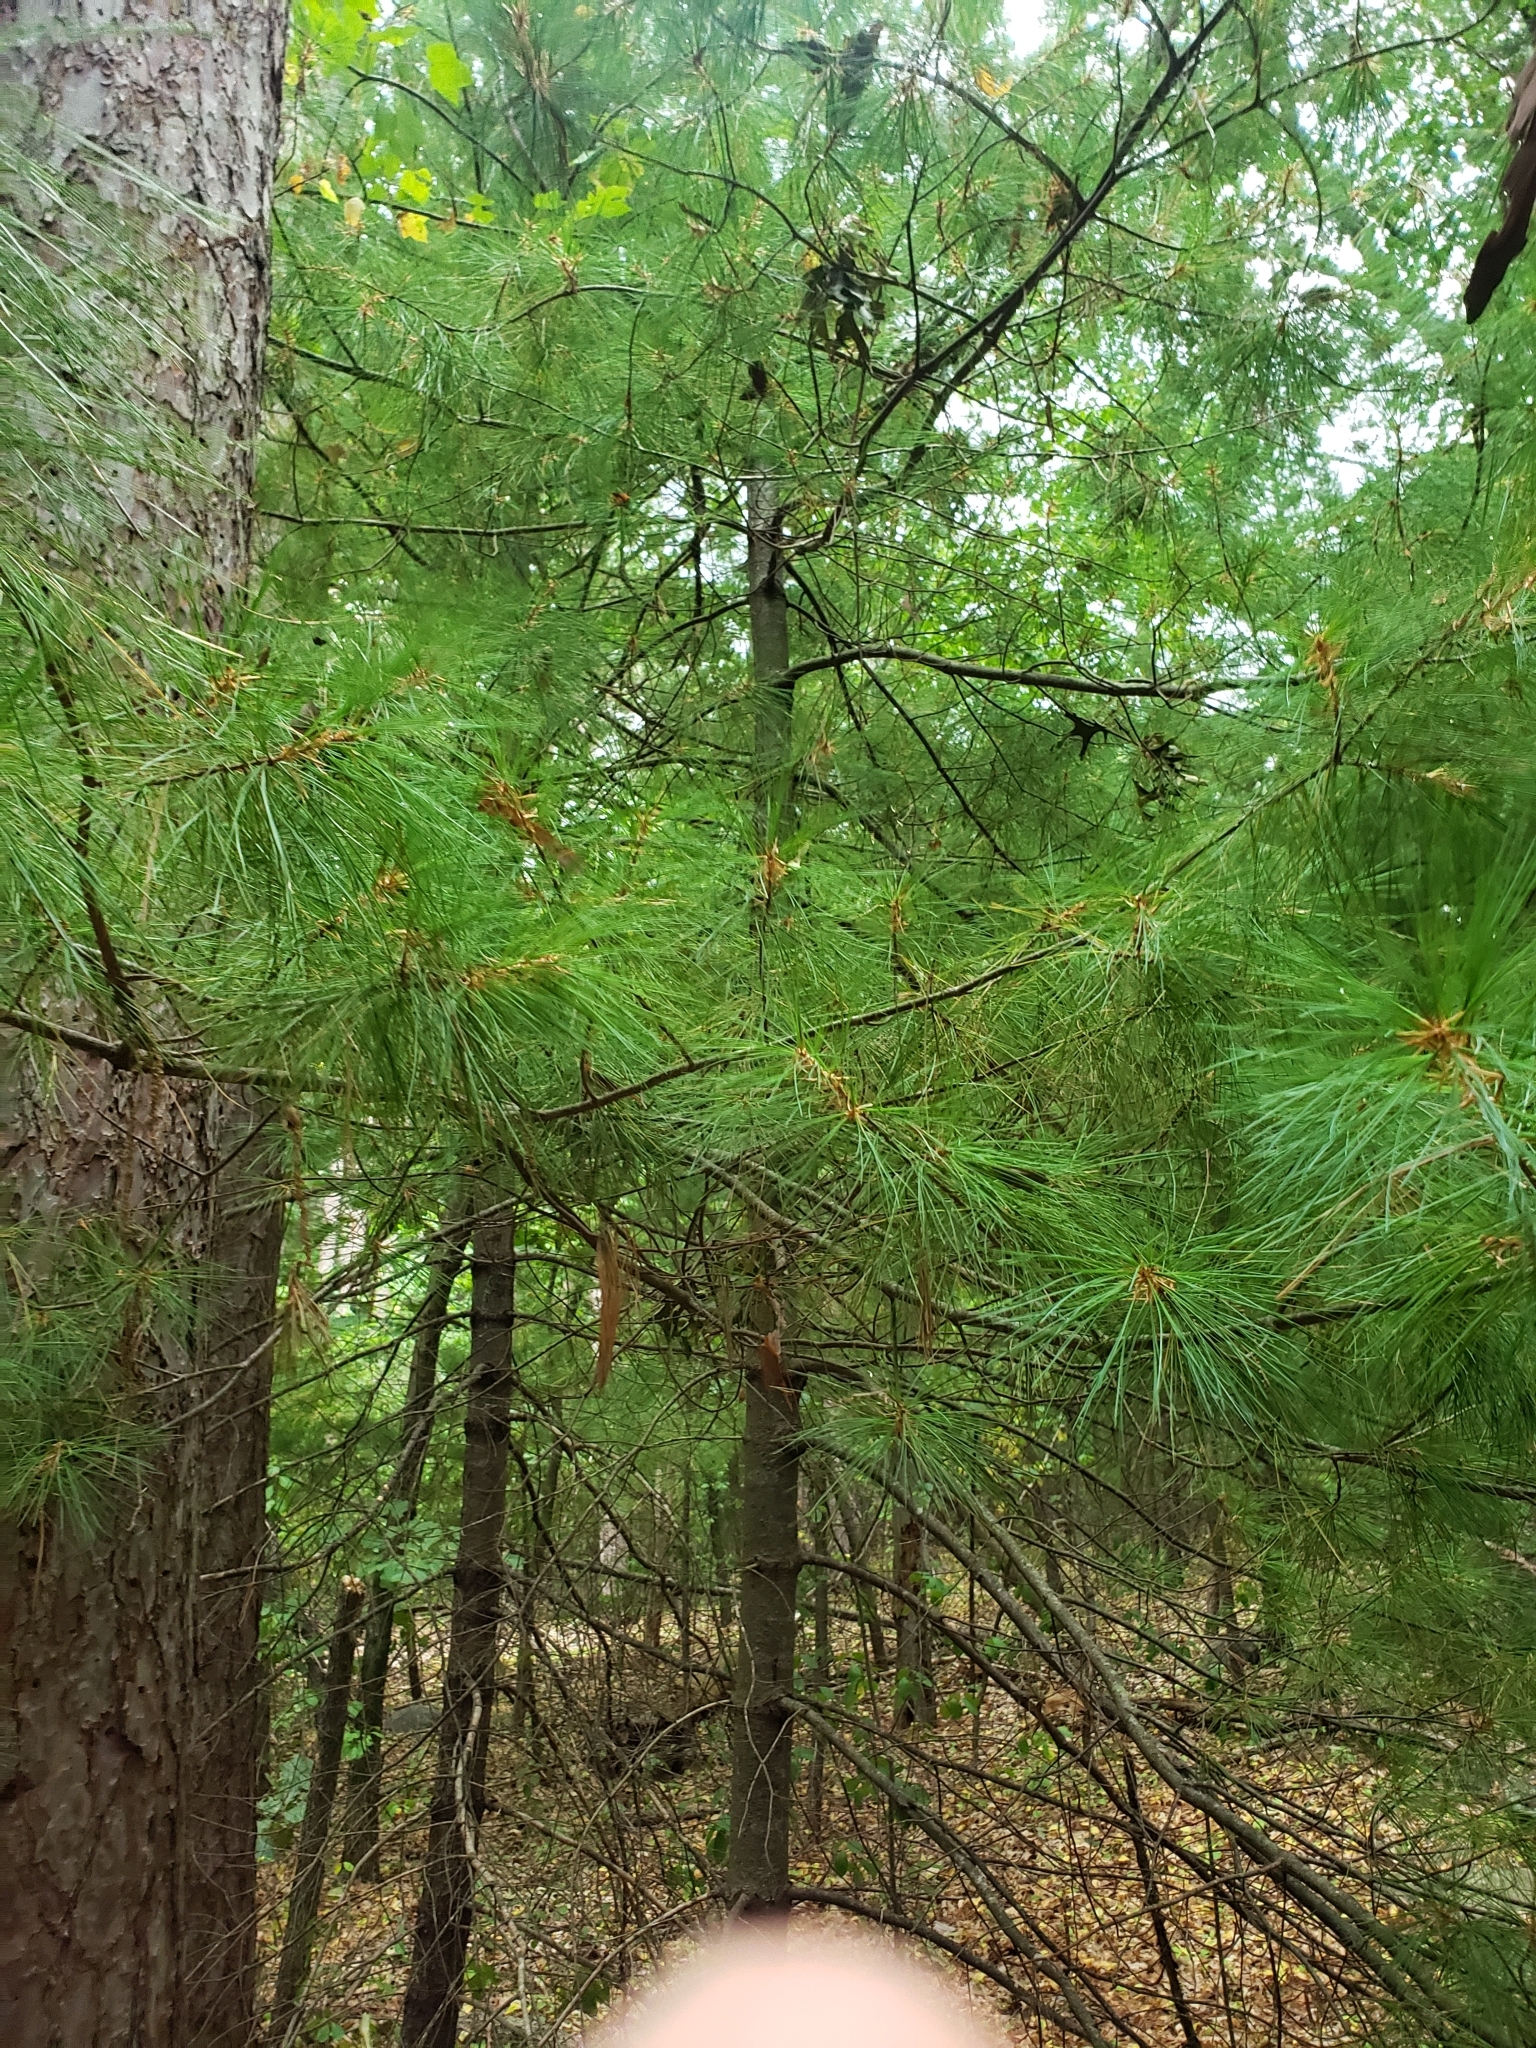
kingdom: Plantae
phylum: Tracheophyta
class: Pinopsida
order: Pinales
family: Pinaceae
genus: Pinus
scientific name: Pinus strobus
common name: Weymouth pine
